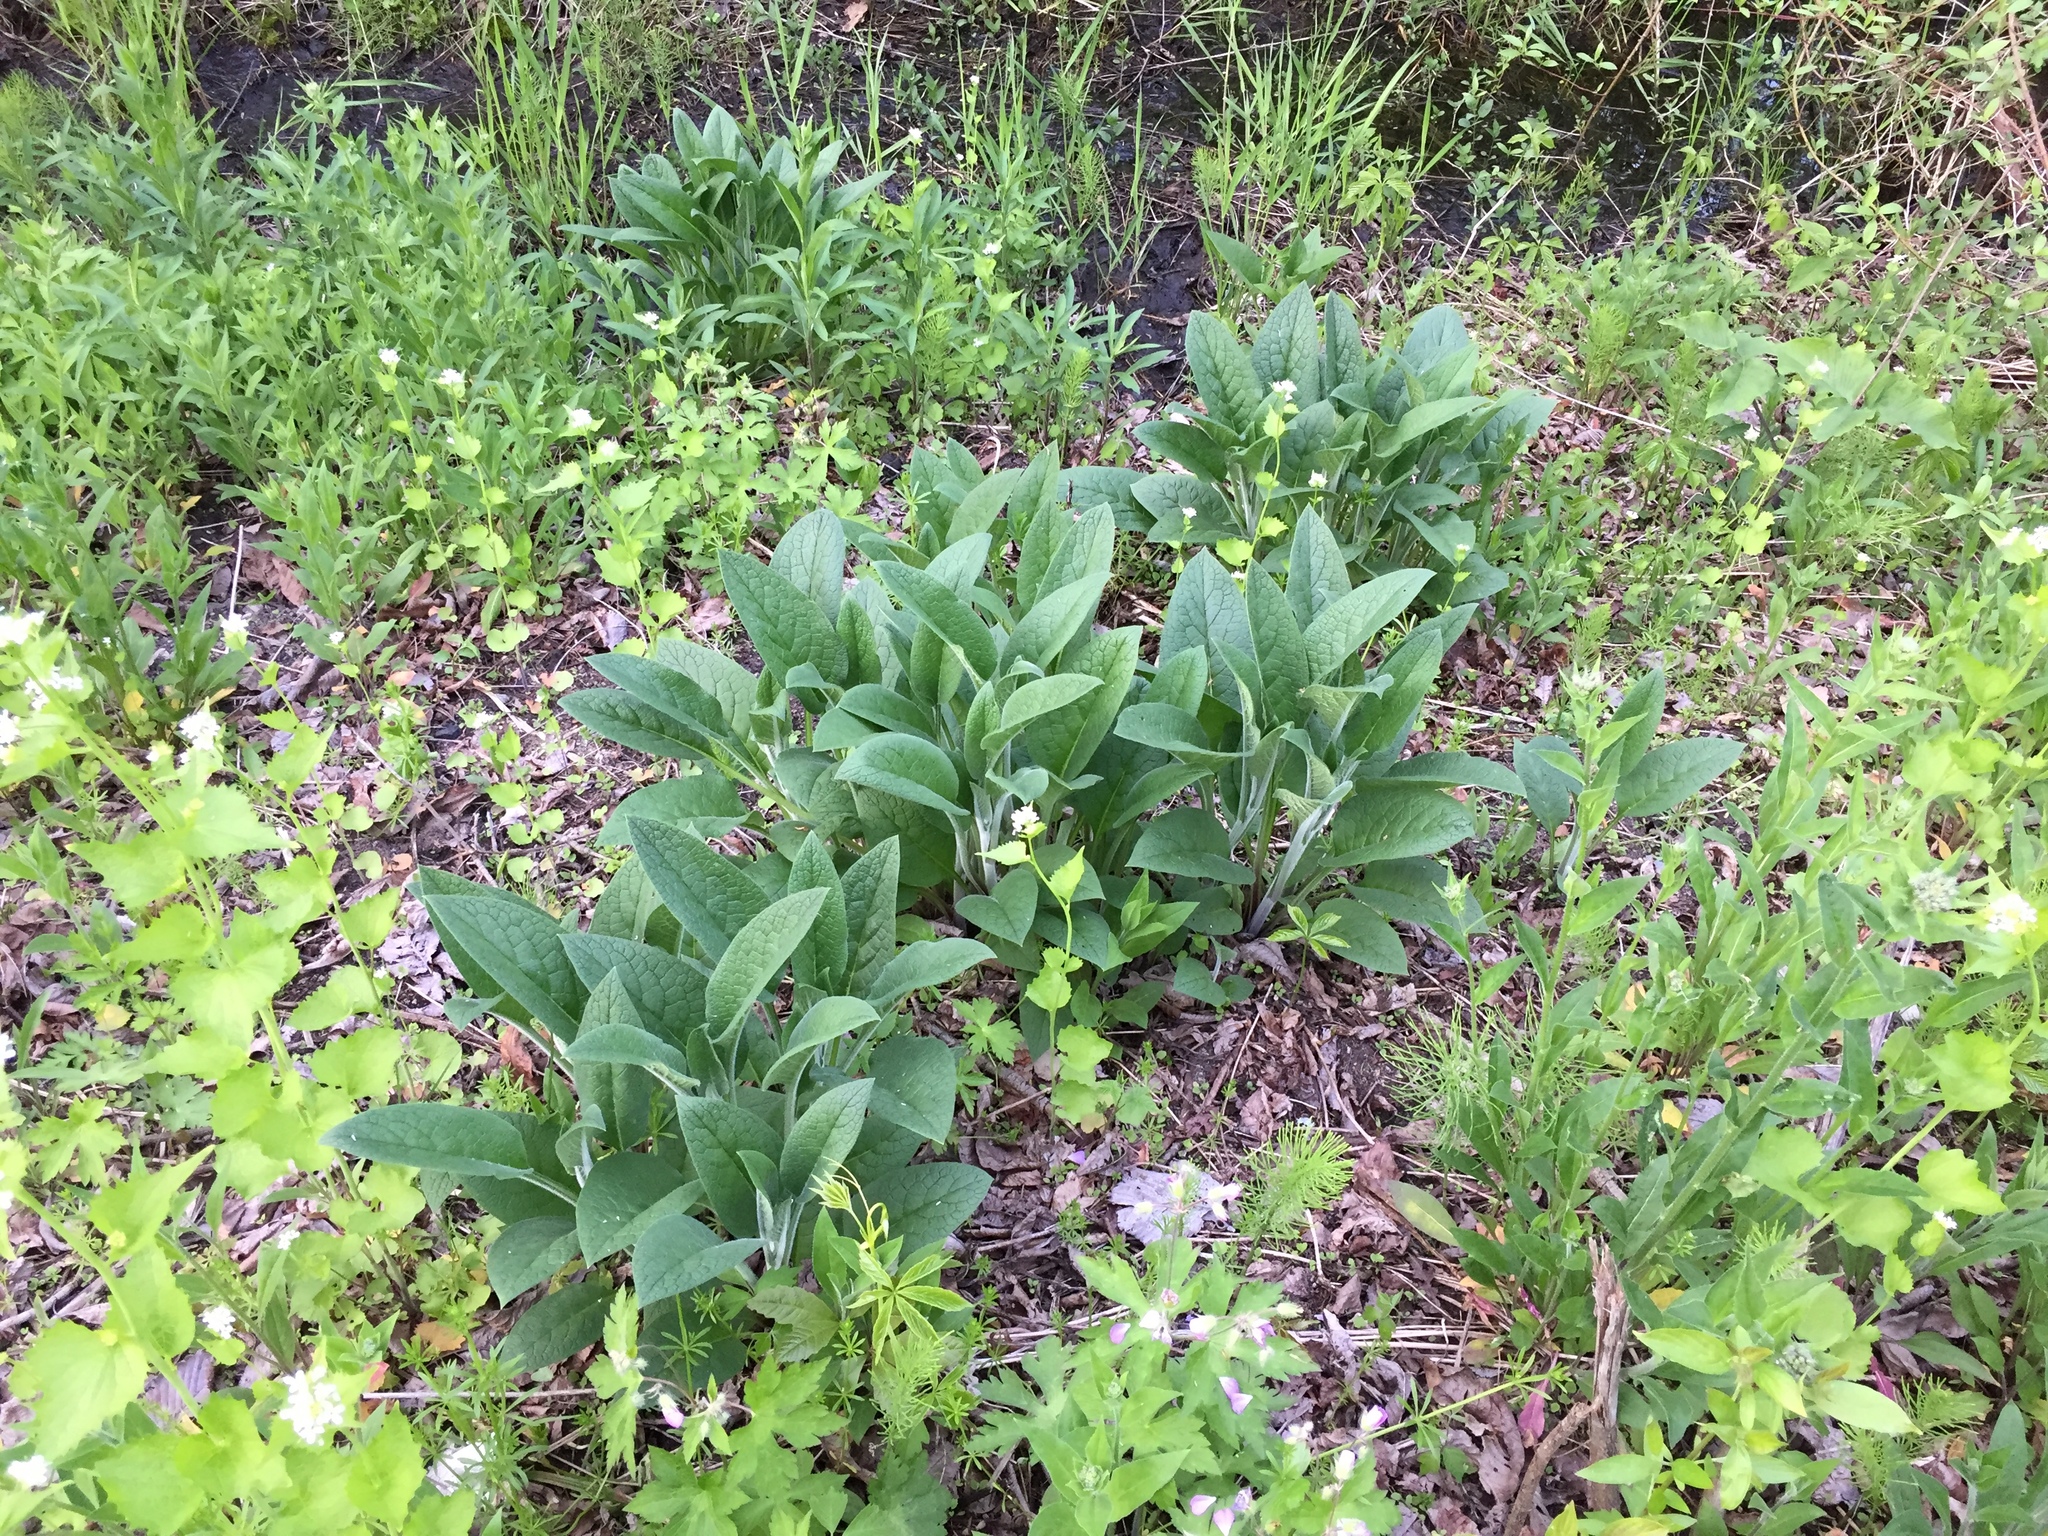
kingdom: Plantae
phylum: Tracheophyta
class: Magnoliopsida
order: Boraginales
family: Boraginaceae
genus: Symphytum
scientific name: Symphytum officinale
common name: Common comfrey
